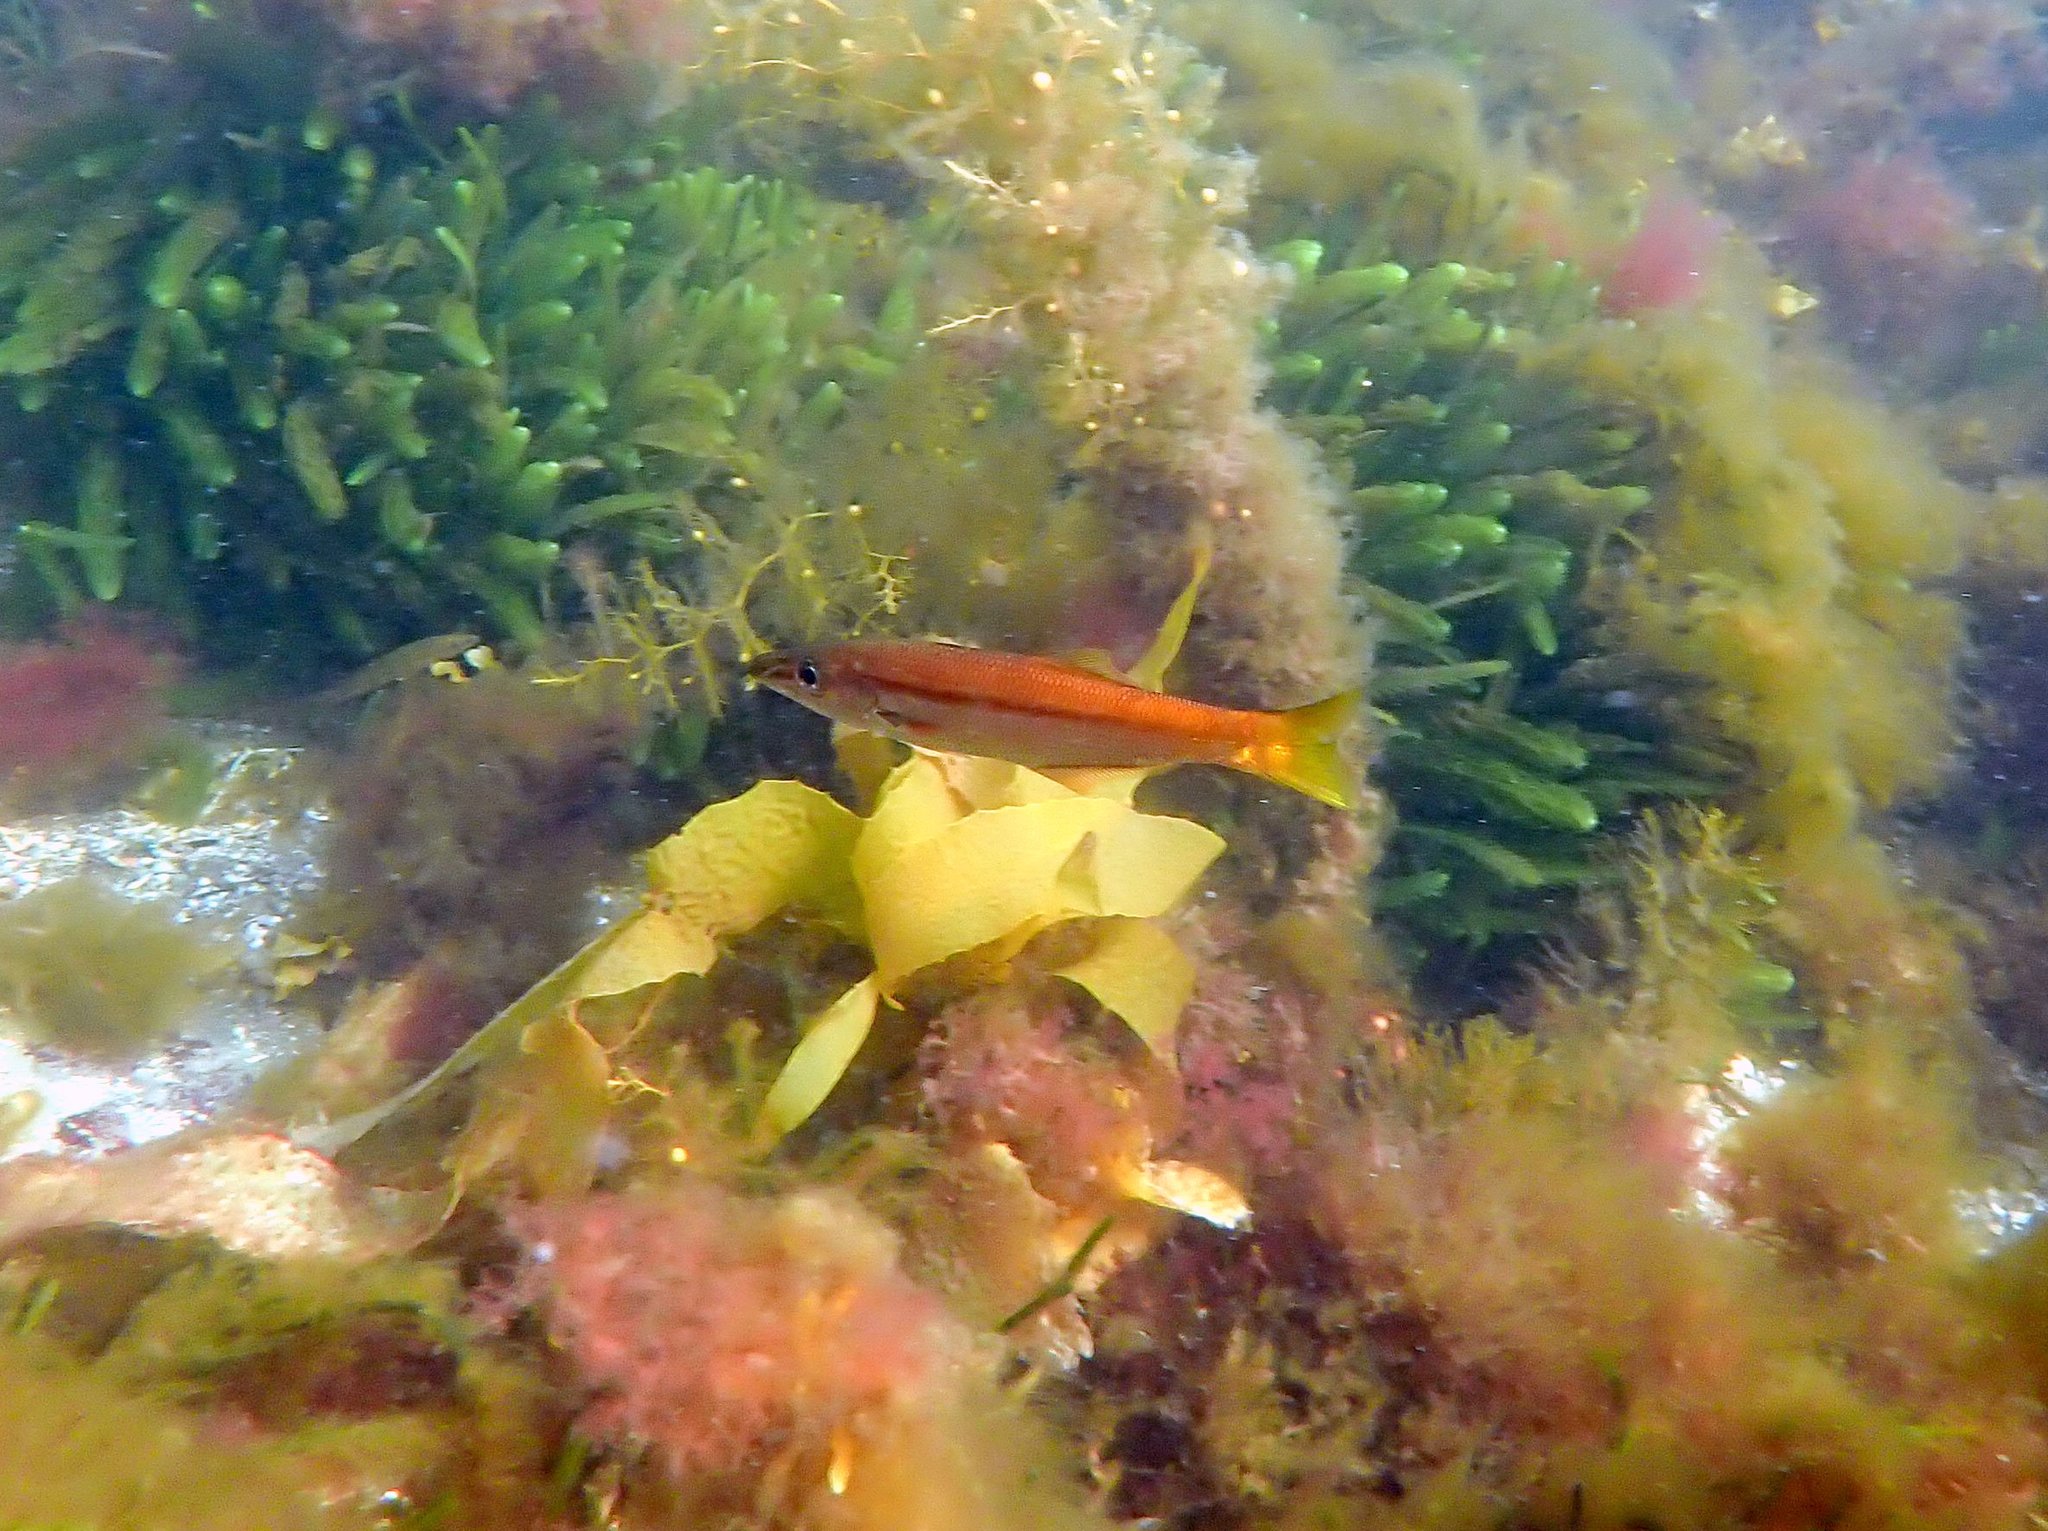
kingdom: Animalia
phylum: Chordata
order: Perciformes
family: Dinolestidae
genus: Dinolestes
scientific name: Dinolestes lewini
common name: Jack pike
